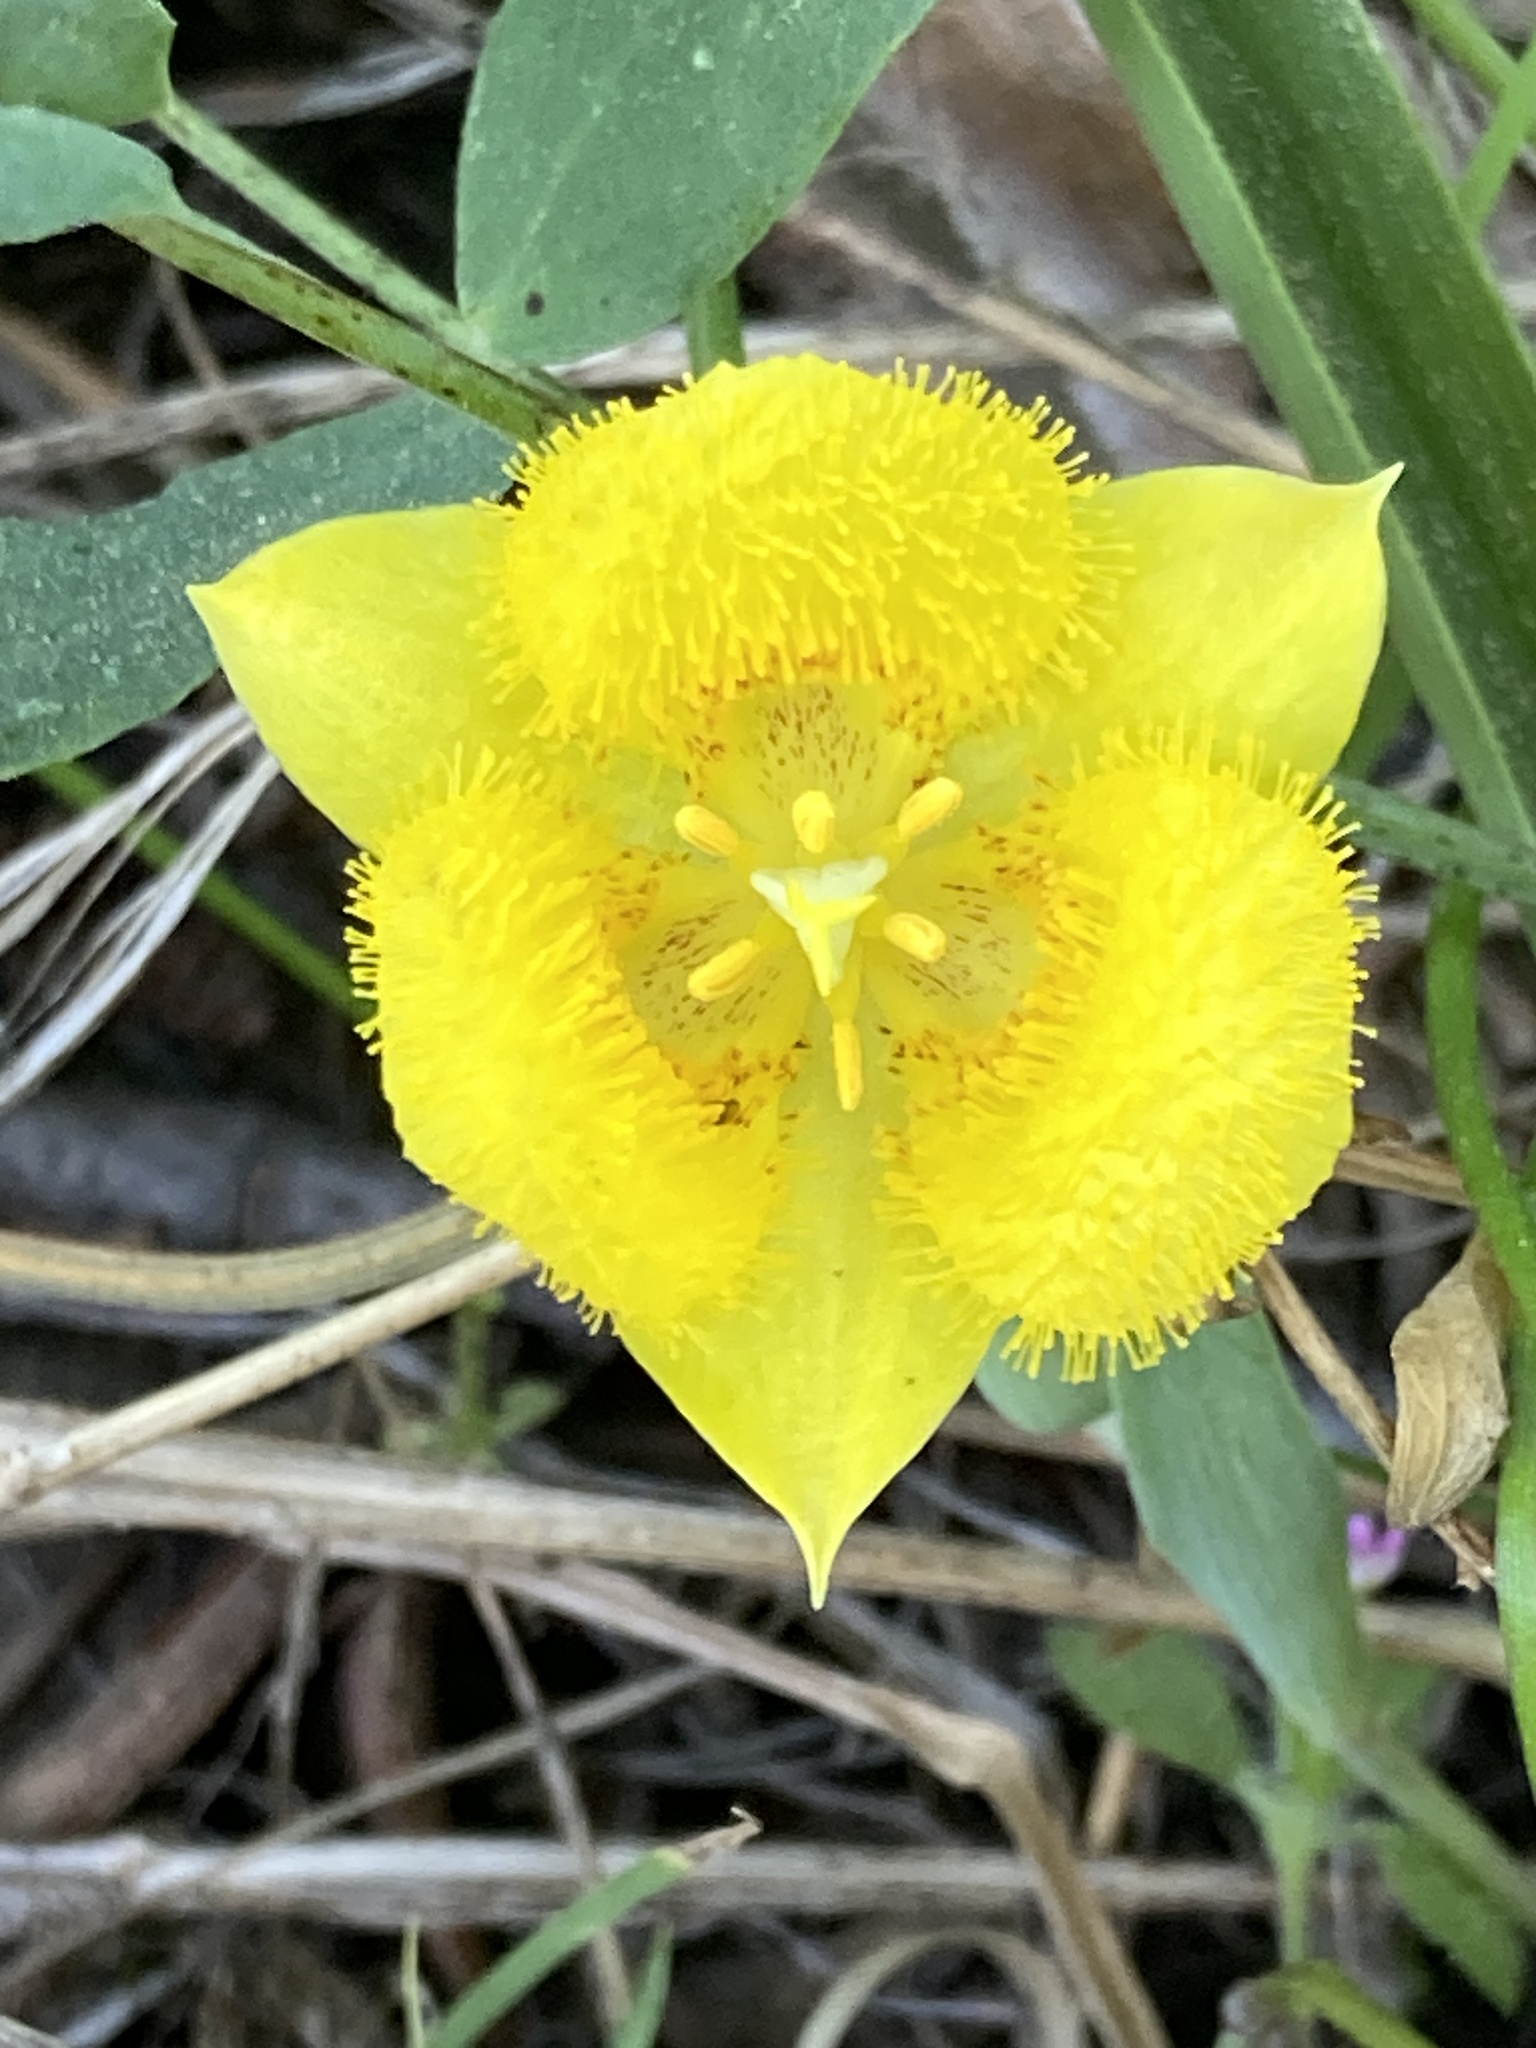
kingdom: Plantae
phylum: Tracheophyta
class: Liliopsida
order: Liliales
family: Liliaceae
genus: Calochortus
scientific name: Calochortus monophyllus
